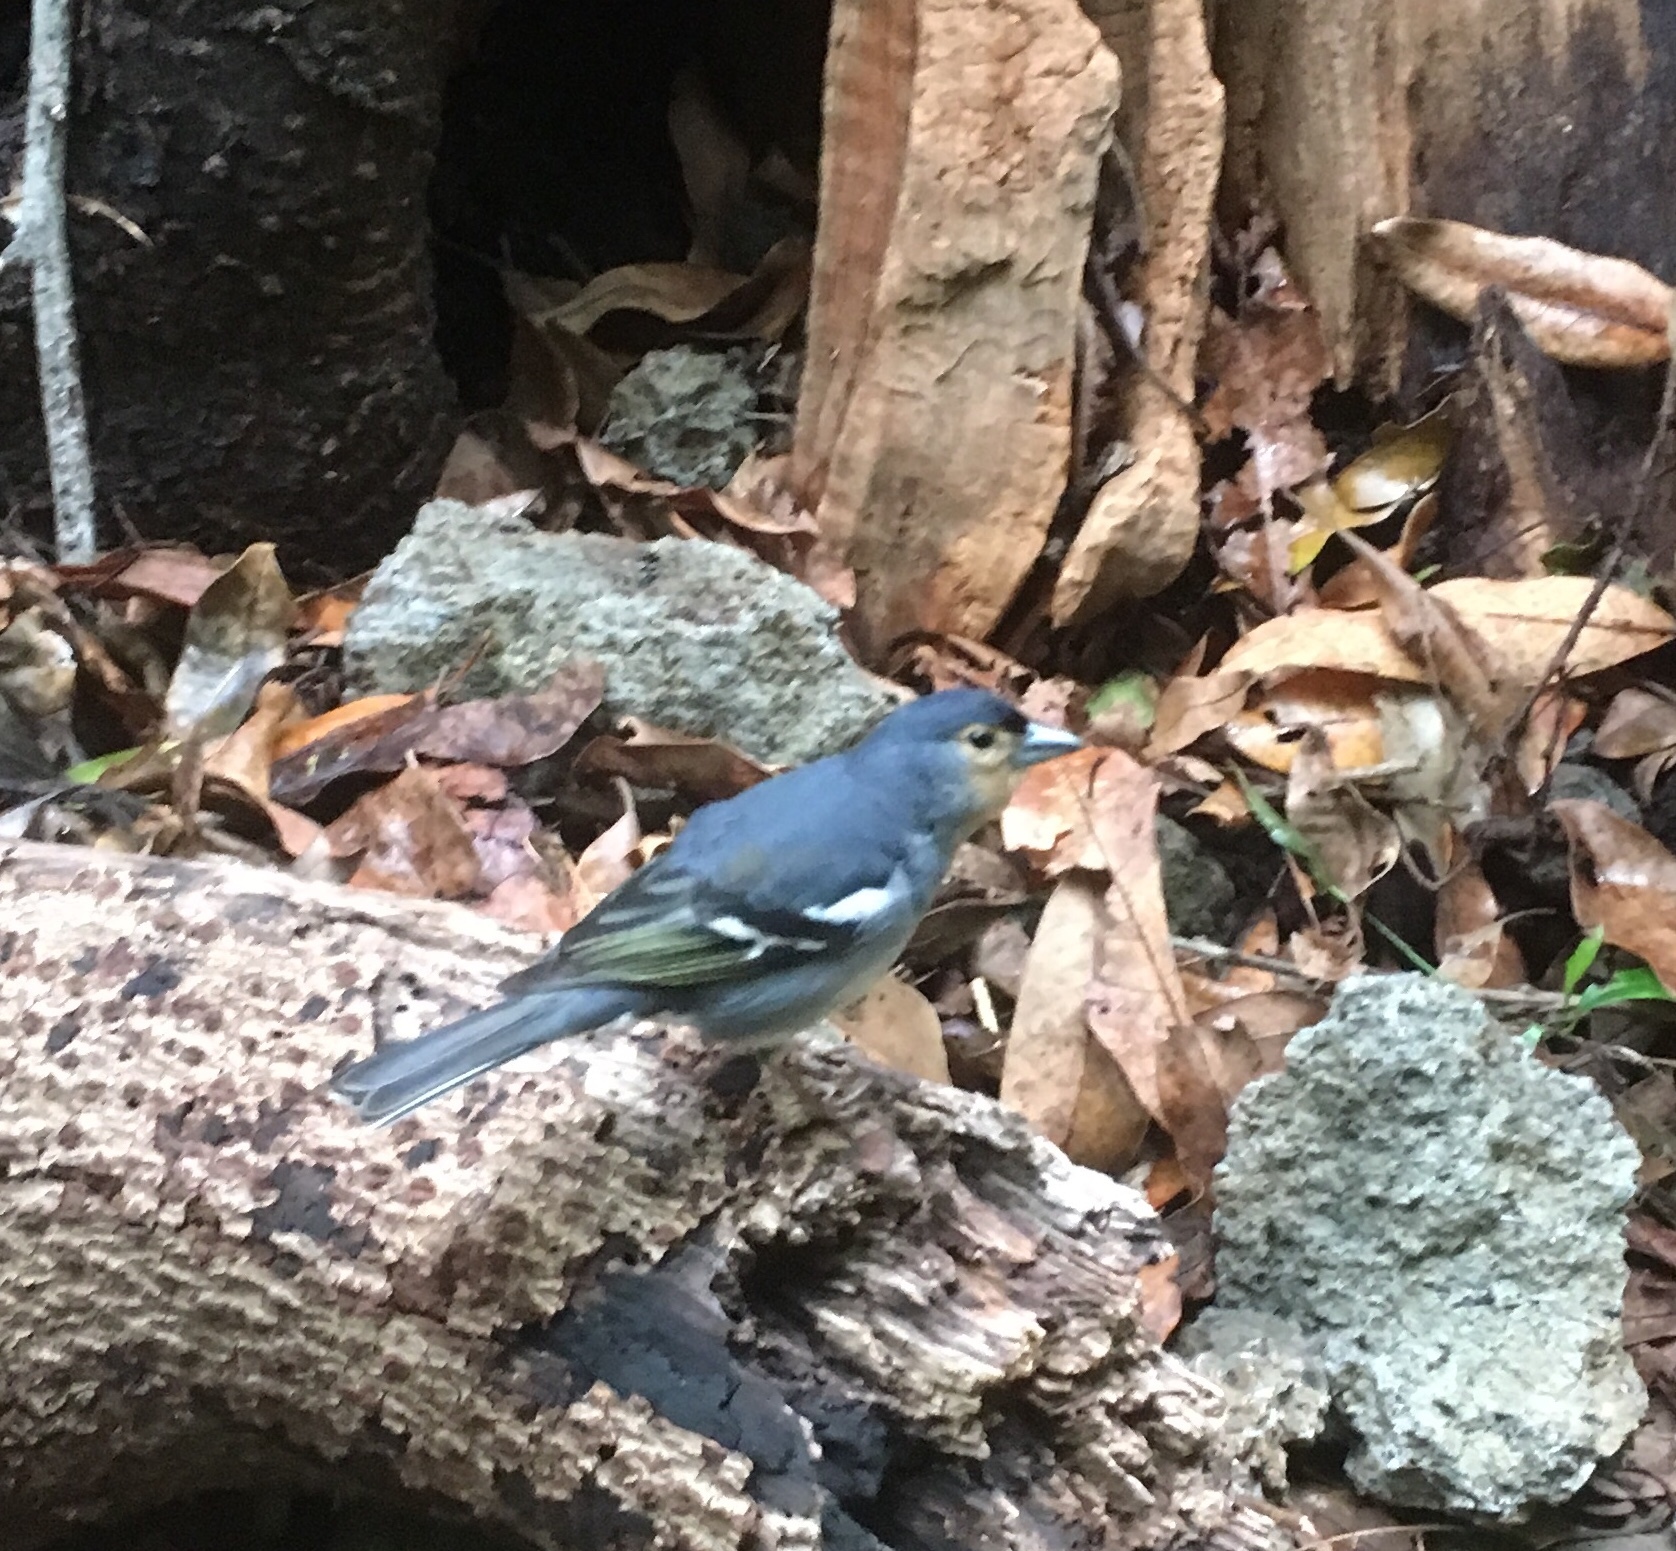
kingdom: Animalia
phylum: Chordata
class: Aves
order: Passeriformes
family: Fringillidae
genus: Fringilla
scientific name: Fringilla canariensis
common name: Canary islands chaffinch
